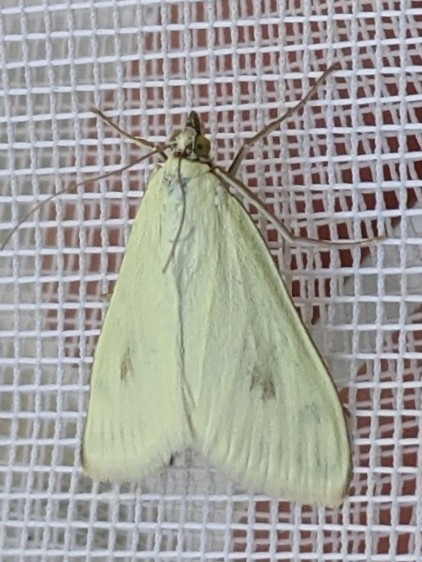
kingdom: Animalia
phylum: Arthropoda
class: Insecta
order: Lepidoptera
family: Crambidae
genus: Sitochroa
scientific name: Sitochroa palealis
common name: Greenish-yellow sitochroa moth
